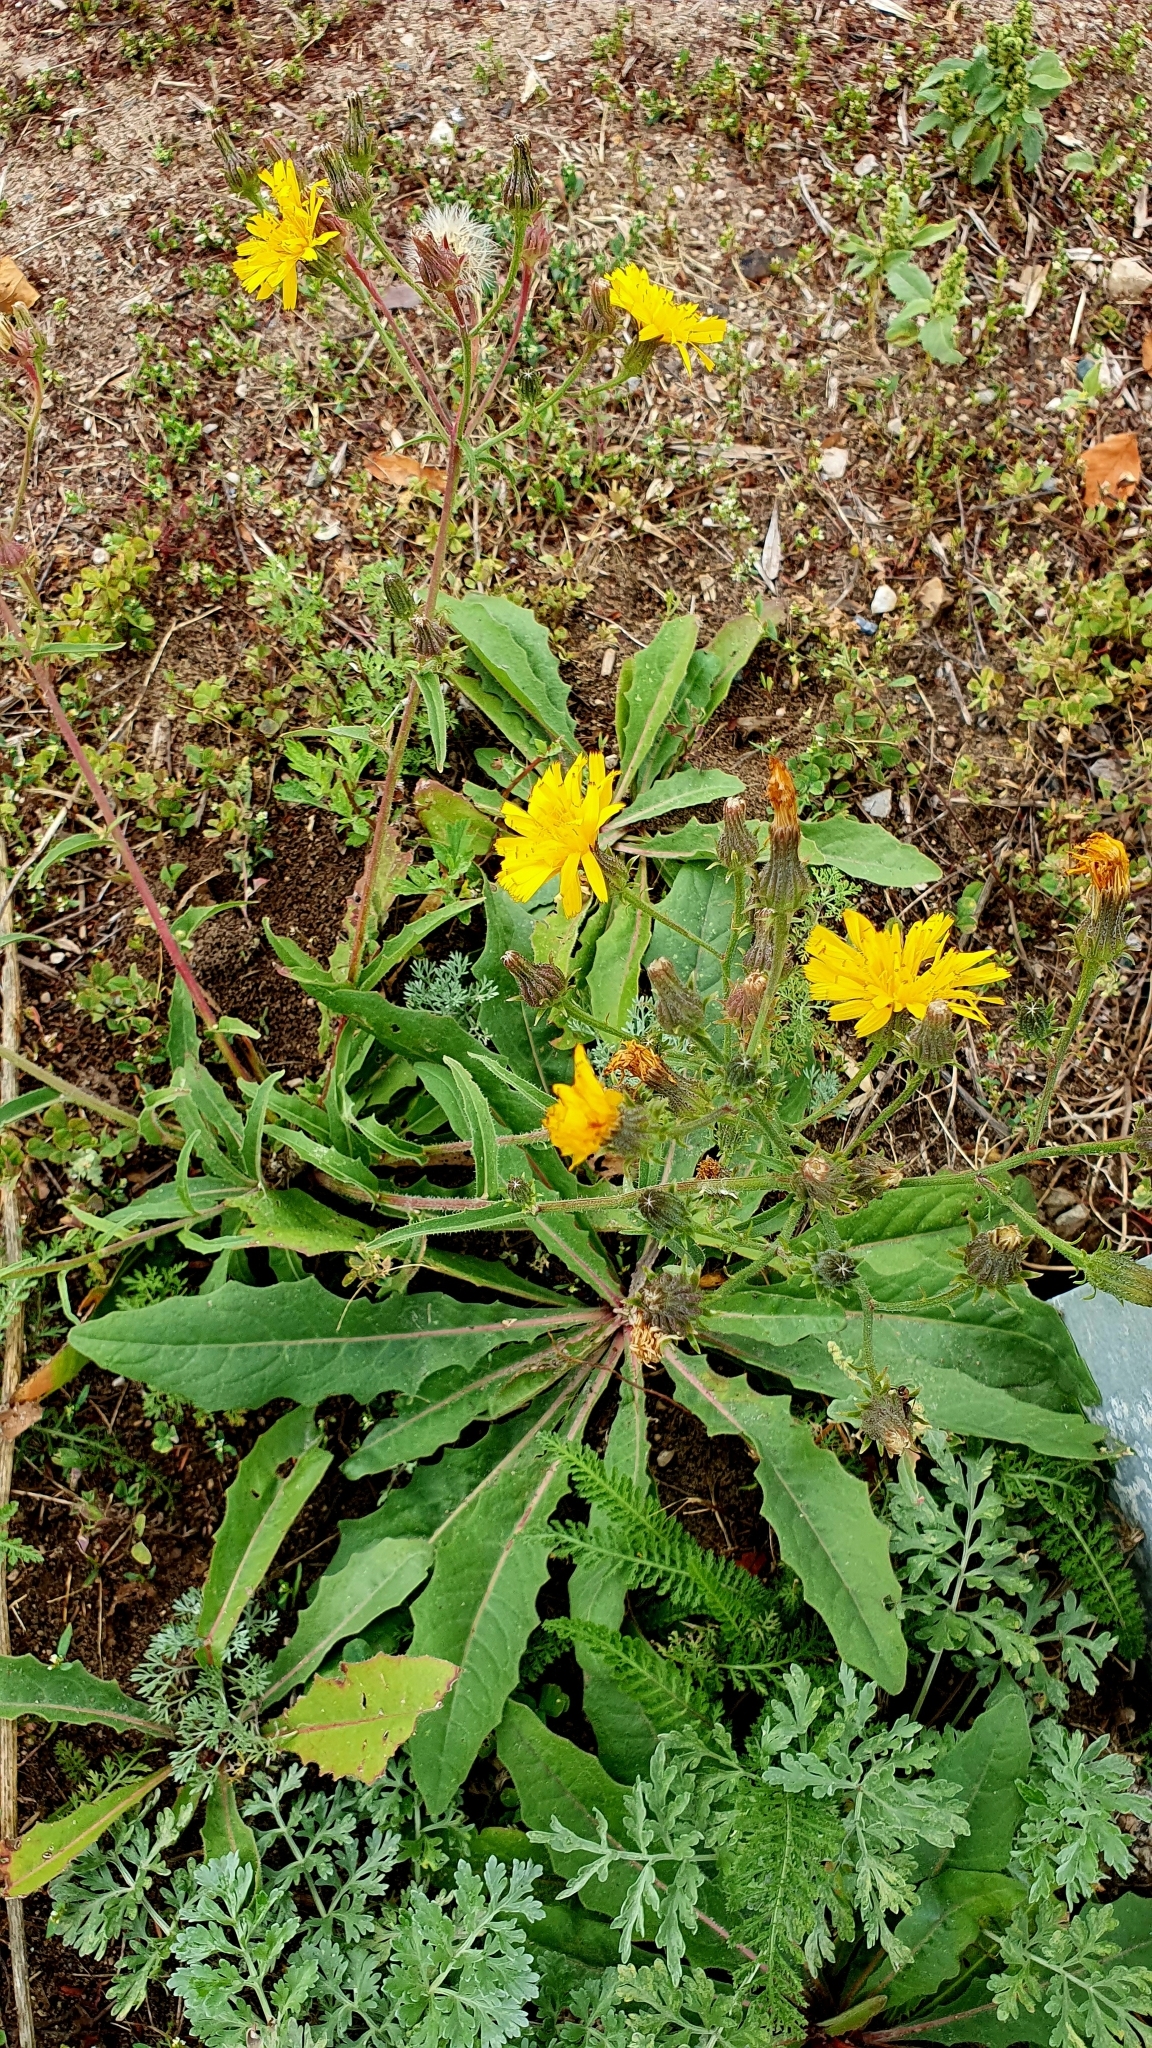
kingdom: Plantae
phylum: Tracheophyta
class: Magnoliopsida
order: Asterales
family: Asteraceae
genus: Picris
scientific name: Picris hieracioides
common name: Hawkweed oxtongue
